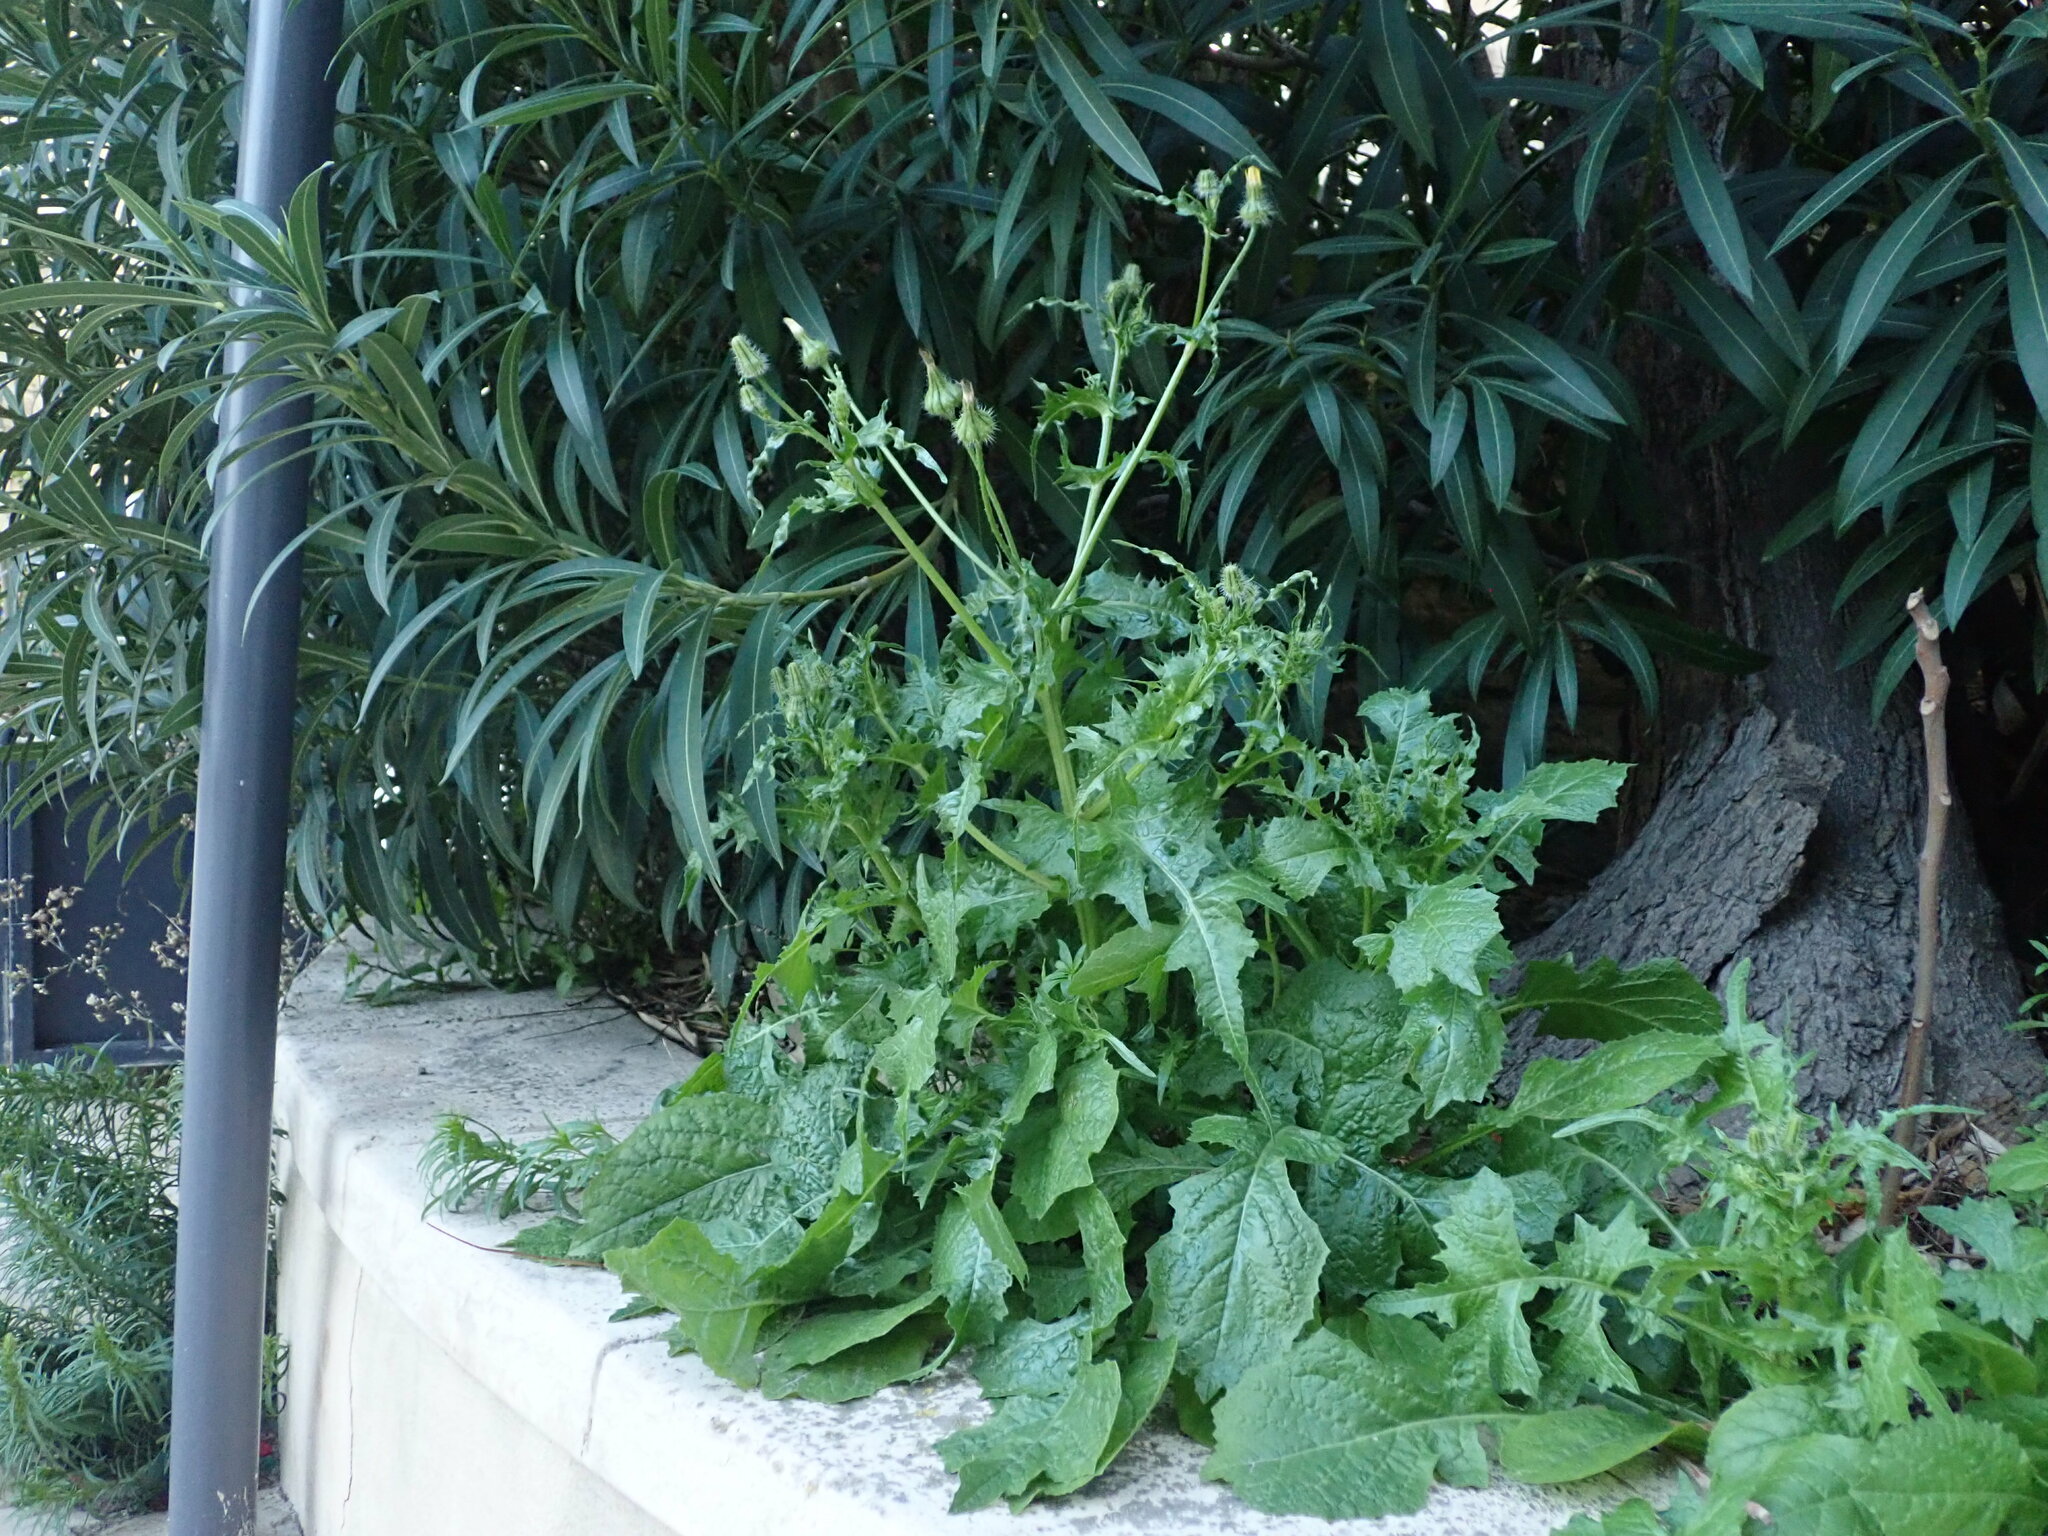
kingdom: Plantae
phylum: Tracheophyta
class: Magnoliopsida
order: Asterales
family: Asteraceae
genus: Urospermum
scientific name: Urospermum picroides
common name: False hawkbit
